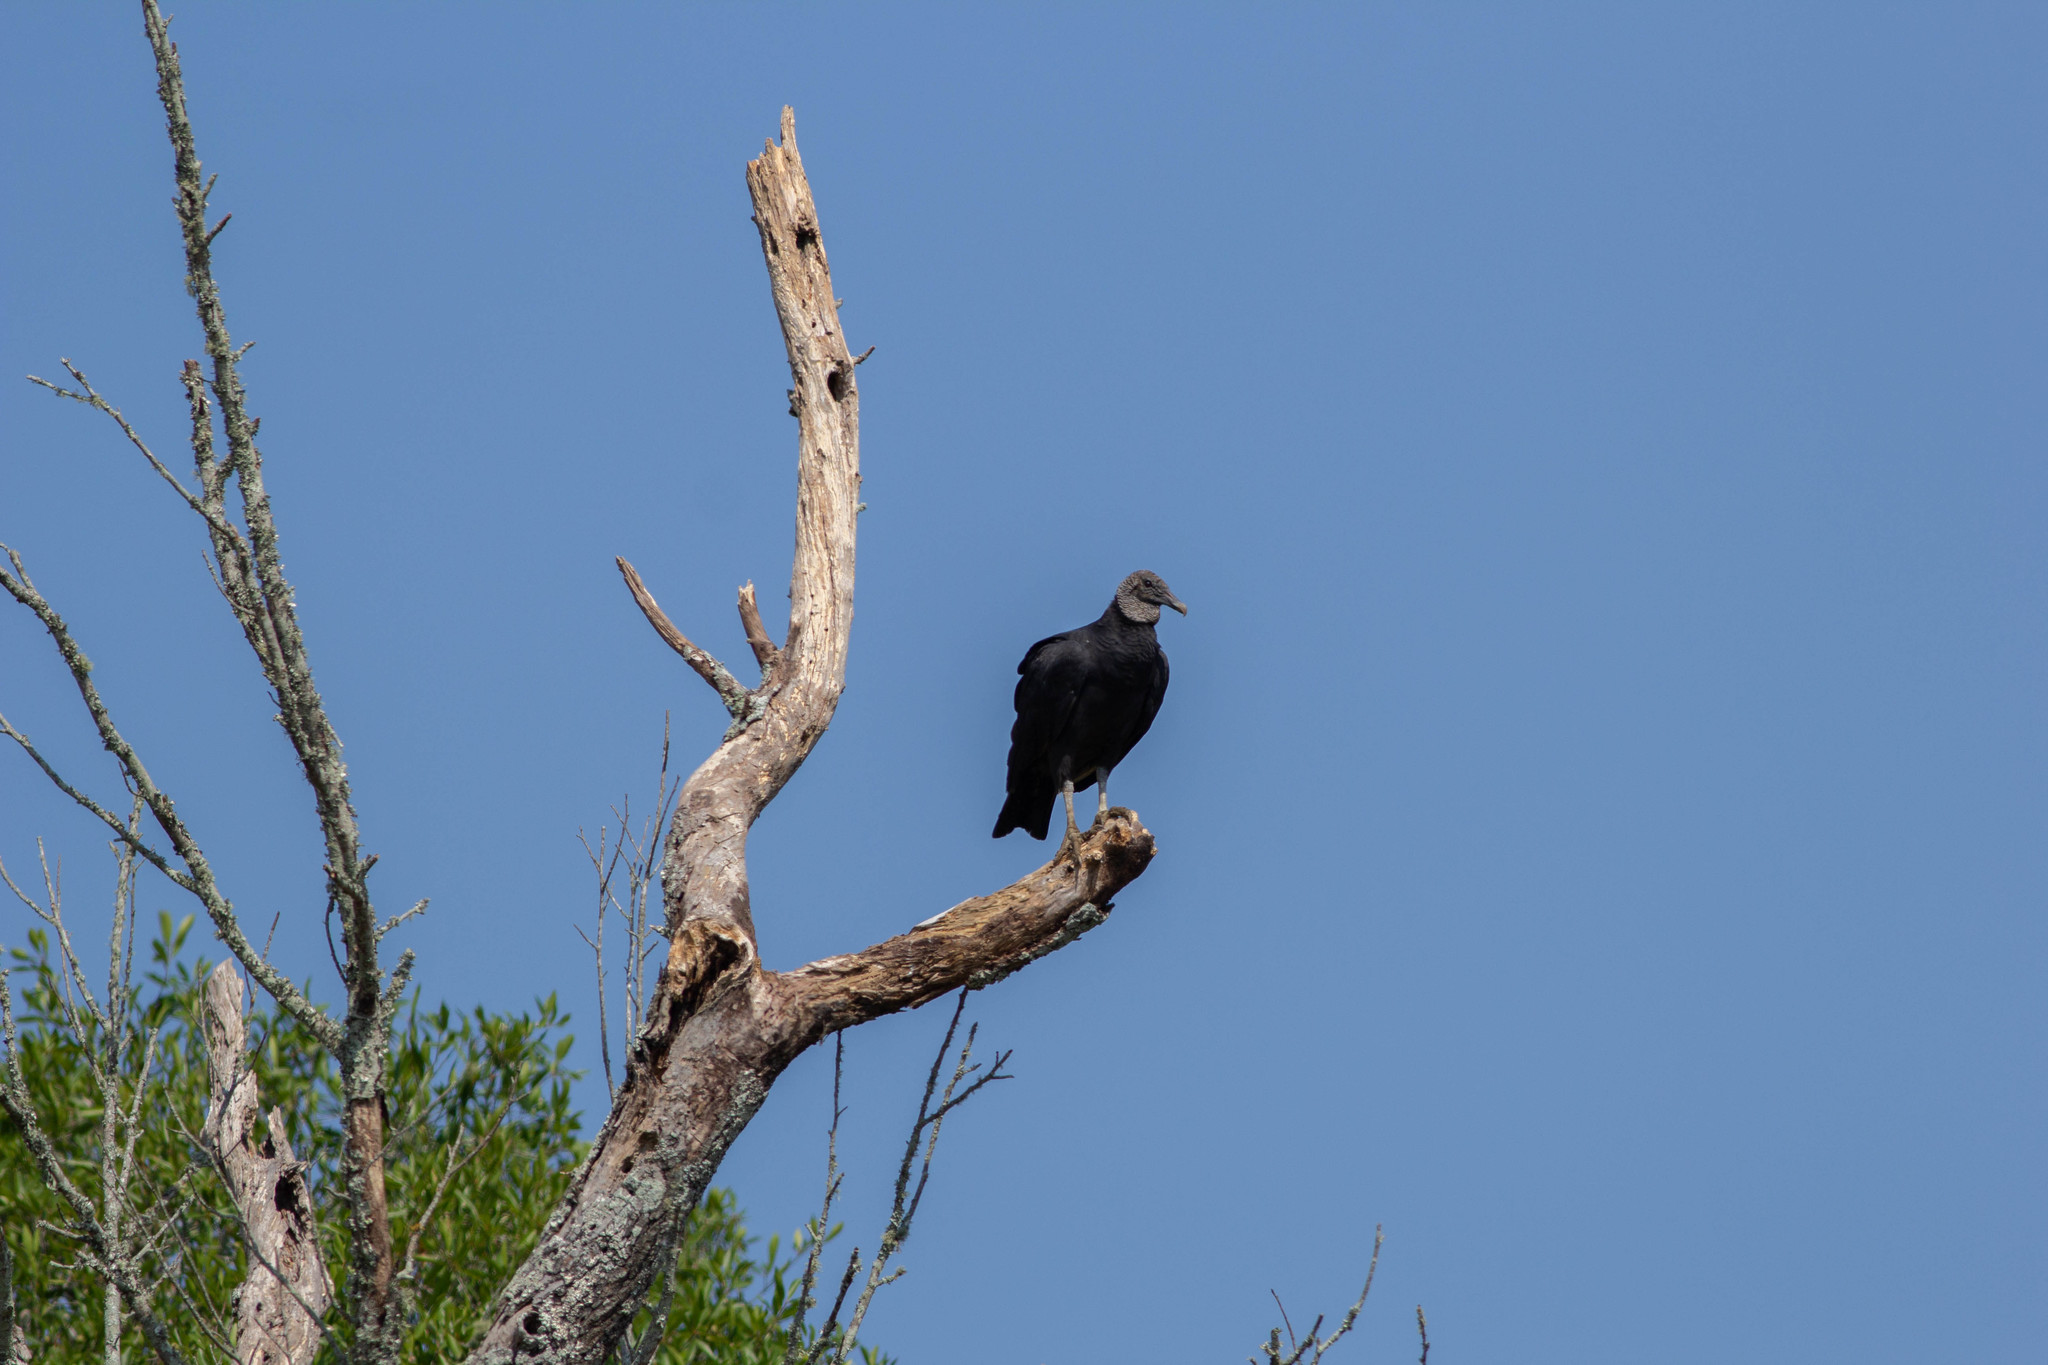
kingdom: Animalia
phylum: Chordata
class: Aves
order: Accipitriformes
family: Cathartidae
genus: Coragyps
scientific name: Coragyps atratus
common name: Black vulture
